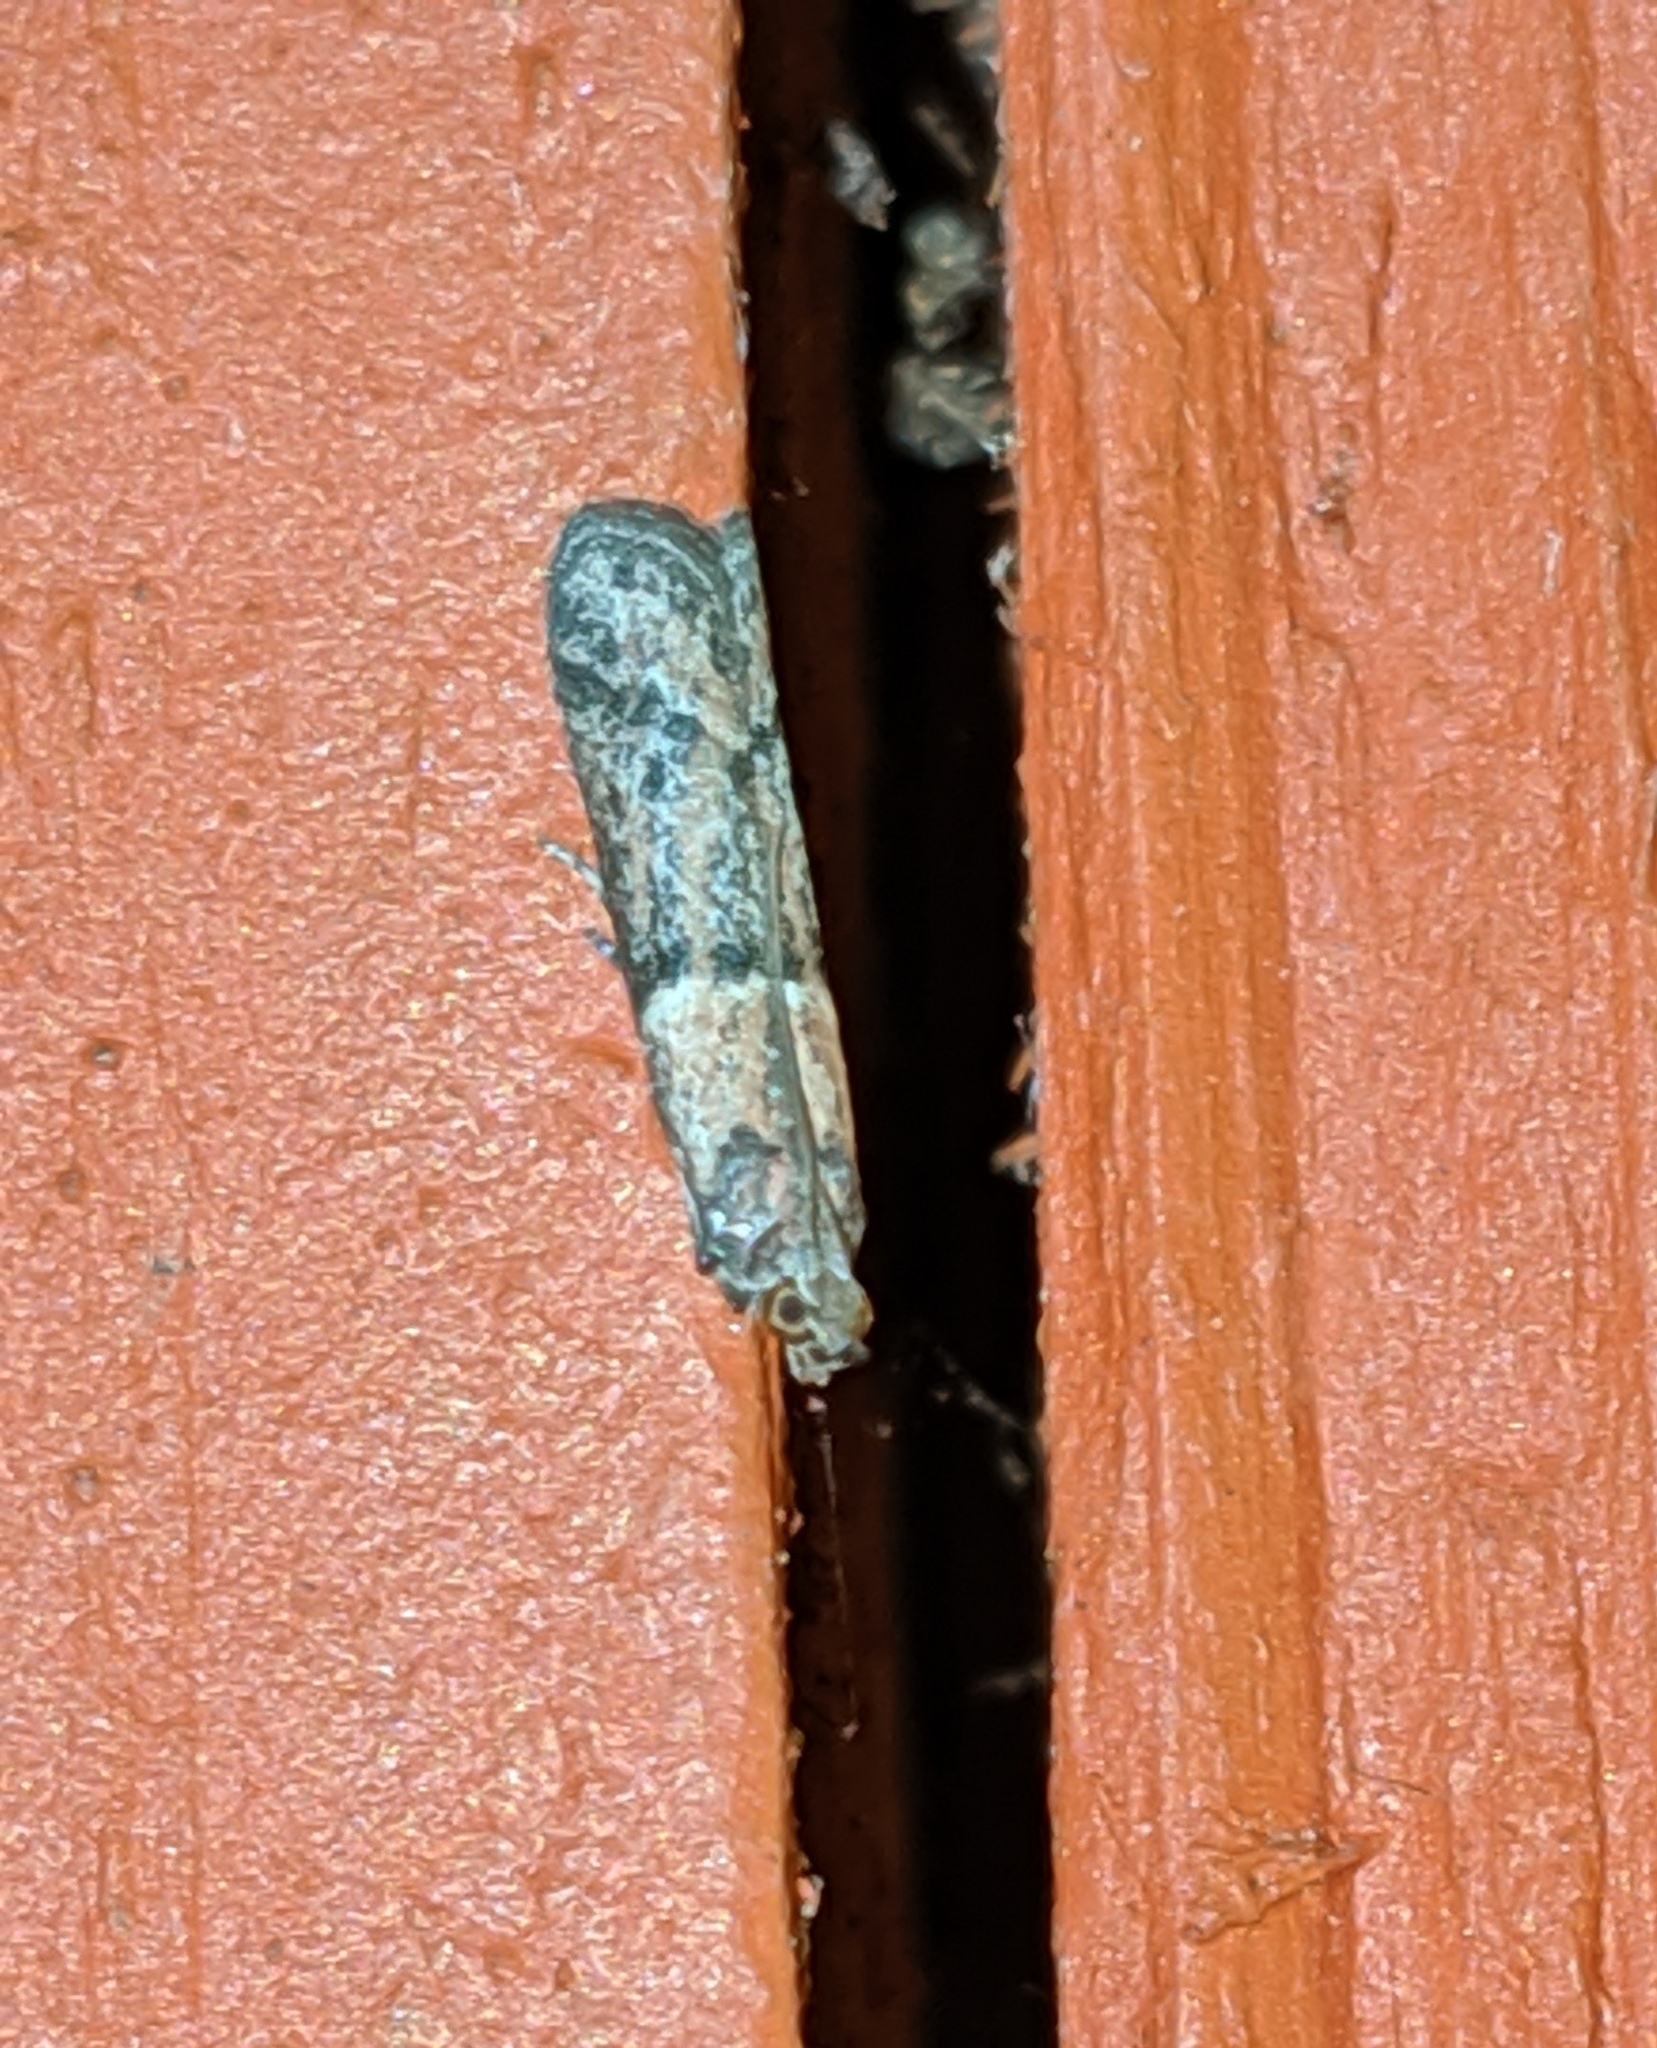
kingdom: Animalia
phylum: Arthropoda
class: Insecta
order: Lepidoptera
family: Pyralidae
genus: Ephestiodes
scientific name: Ephestiodes gilvescentella
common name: Moth
